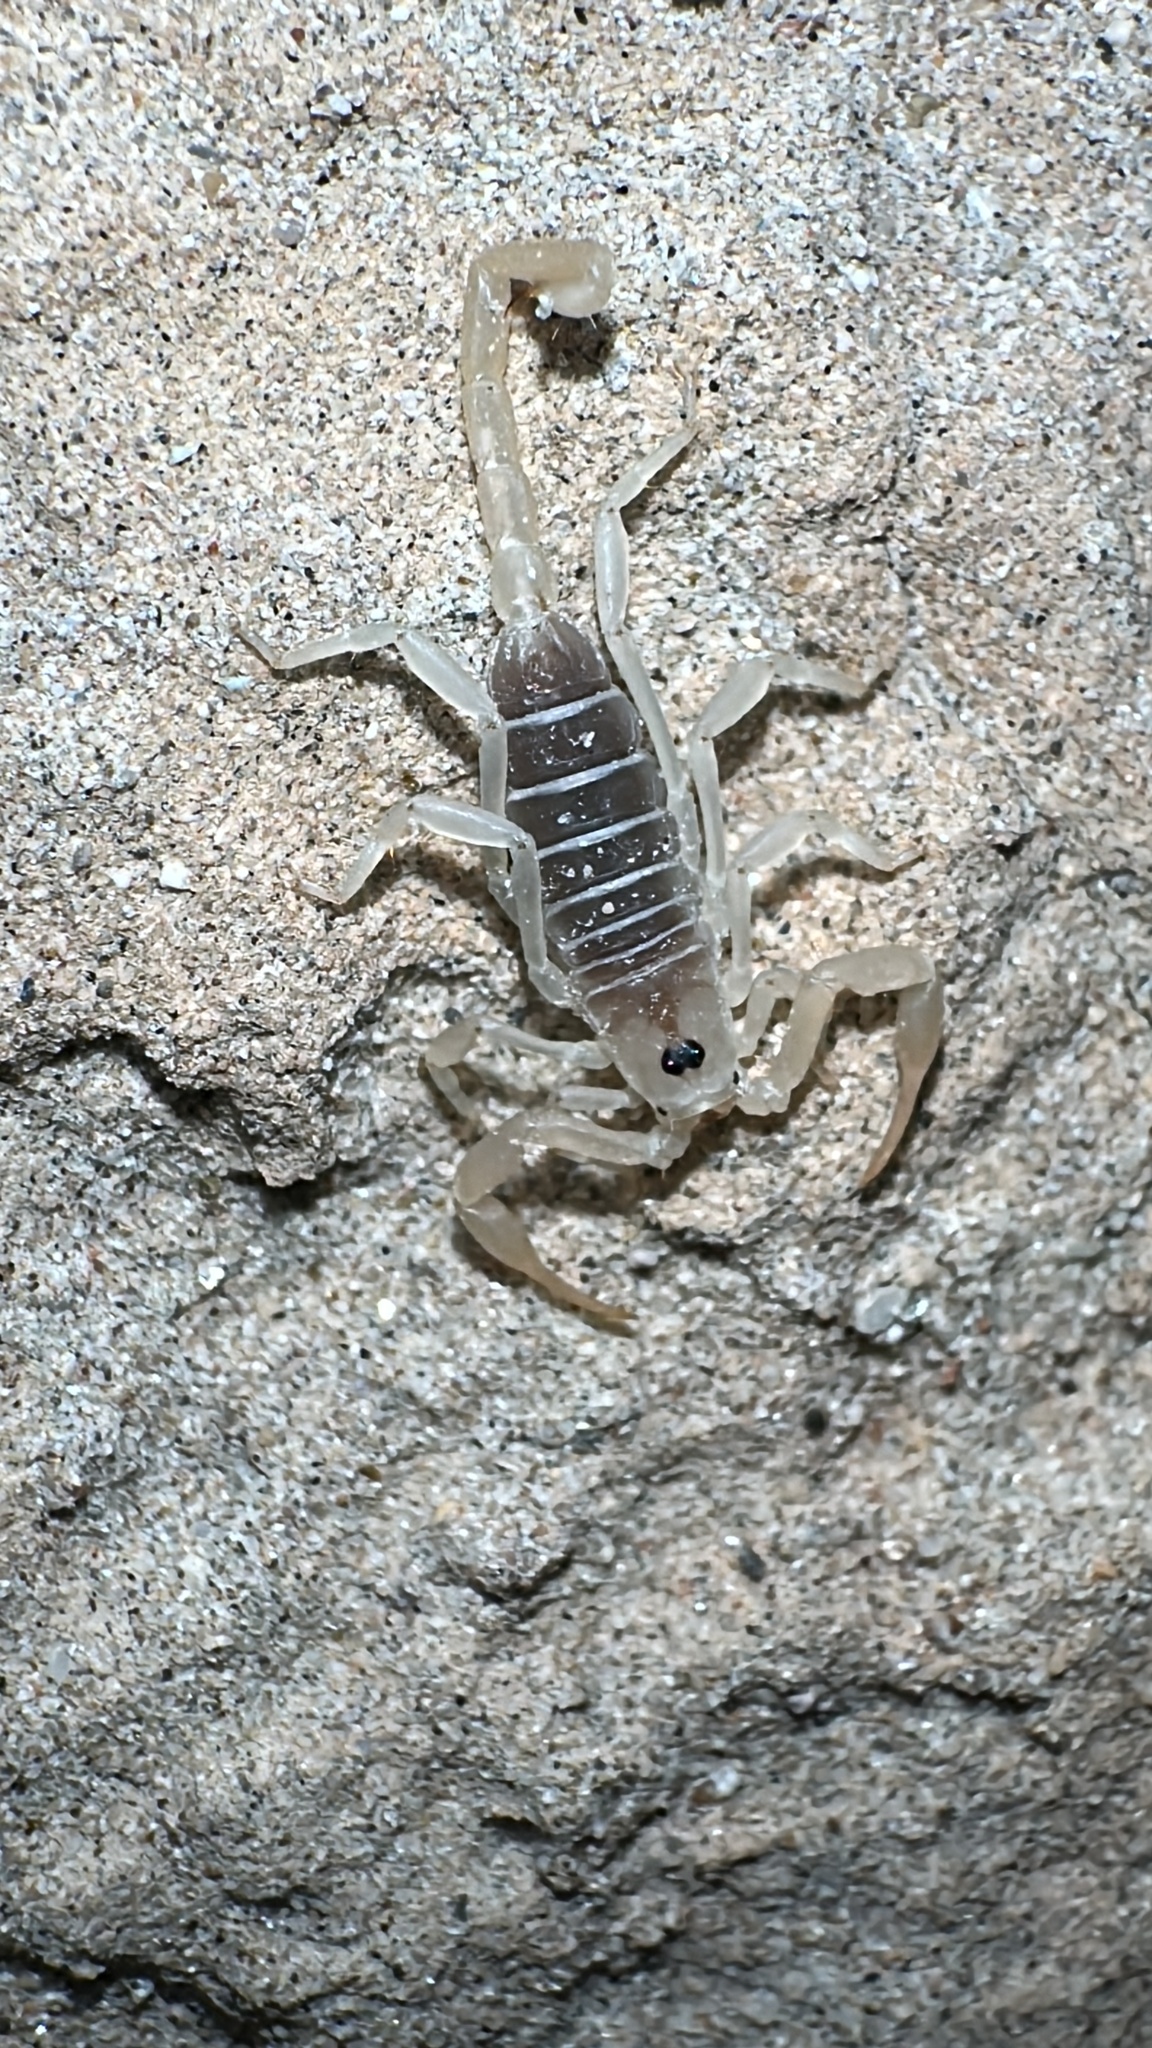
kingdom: Animalia
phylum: Arthropoda
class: Arachnida
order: Scorpiones
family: Vaejovidae
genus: Smeringurus
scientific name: Smeringurus mesaensis
